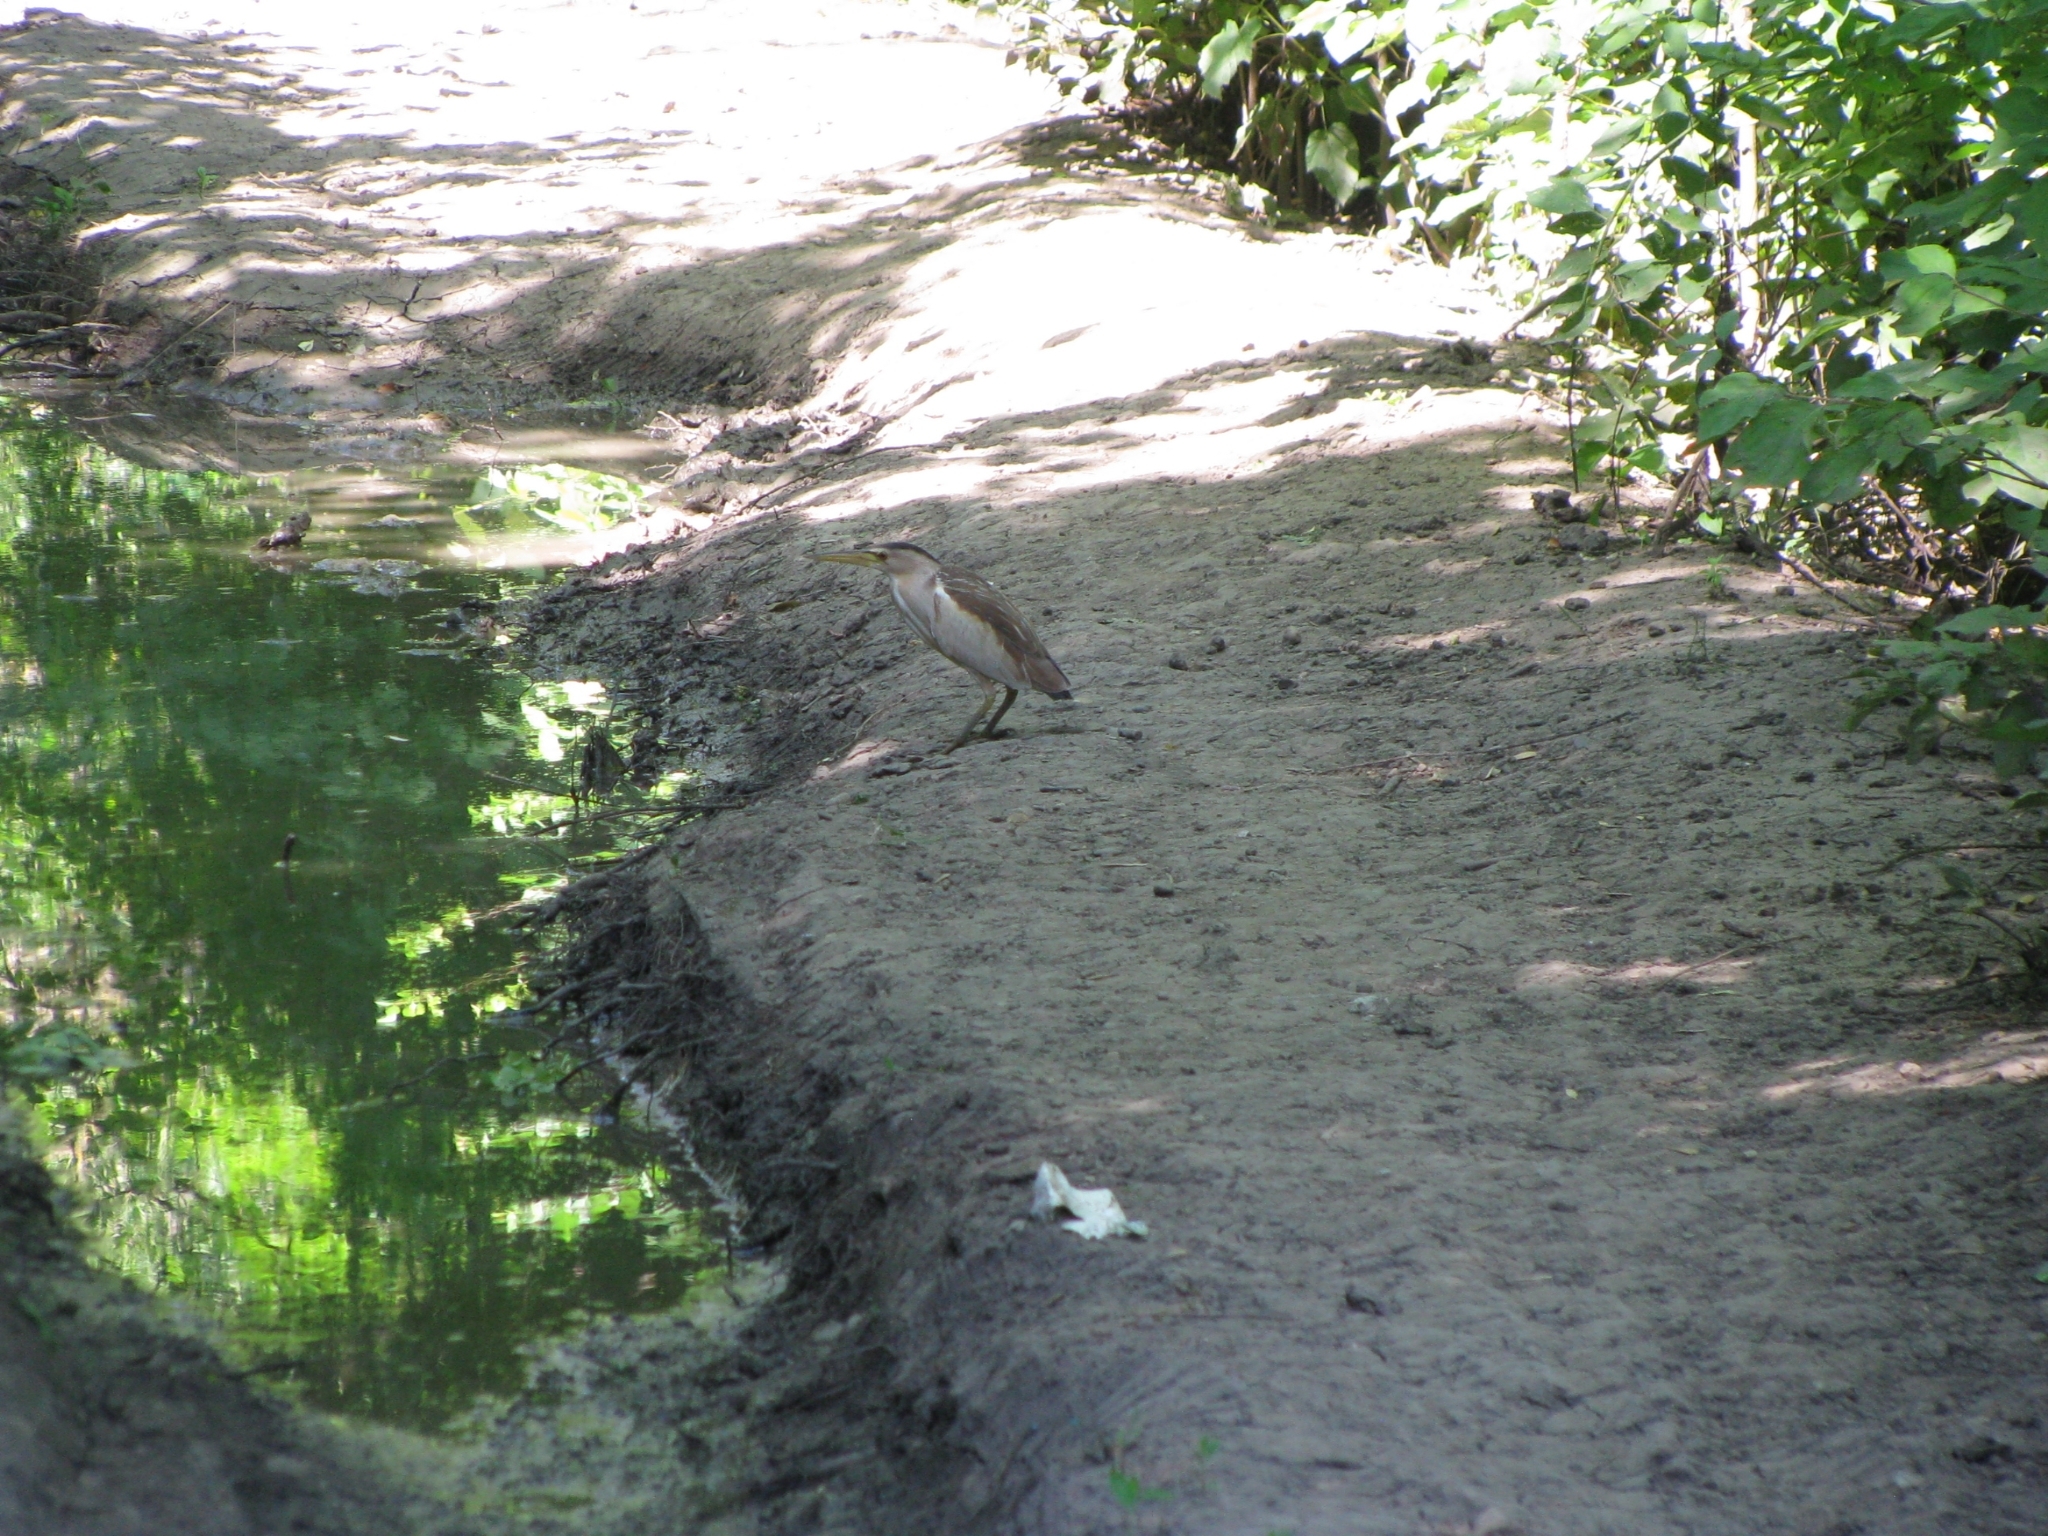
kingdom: Animalia
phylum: Chordata
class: Aves
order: Pelecaniformes
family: Ardeidae
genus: Ixobrychus
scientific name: Ixobrychus minutus
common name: Little bittern
